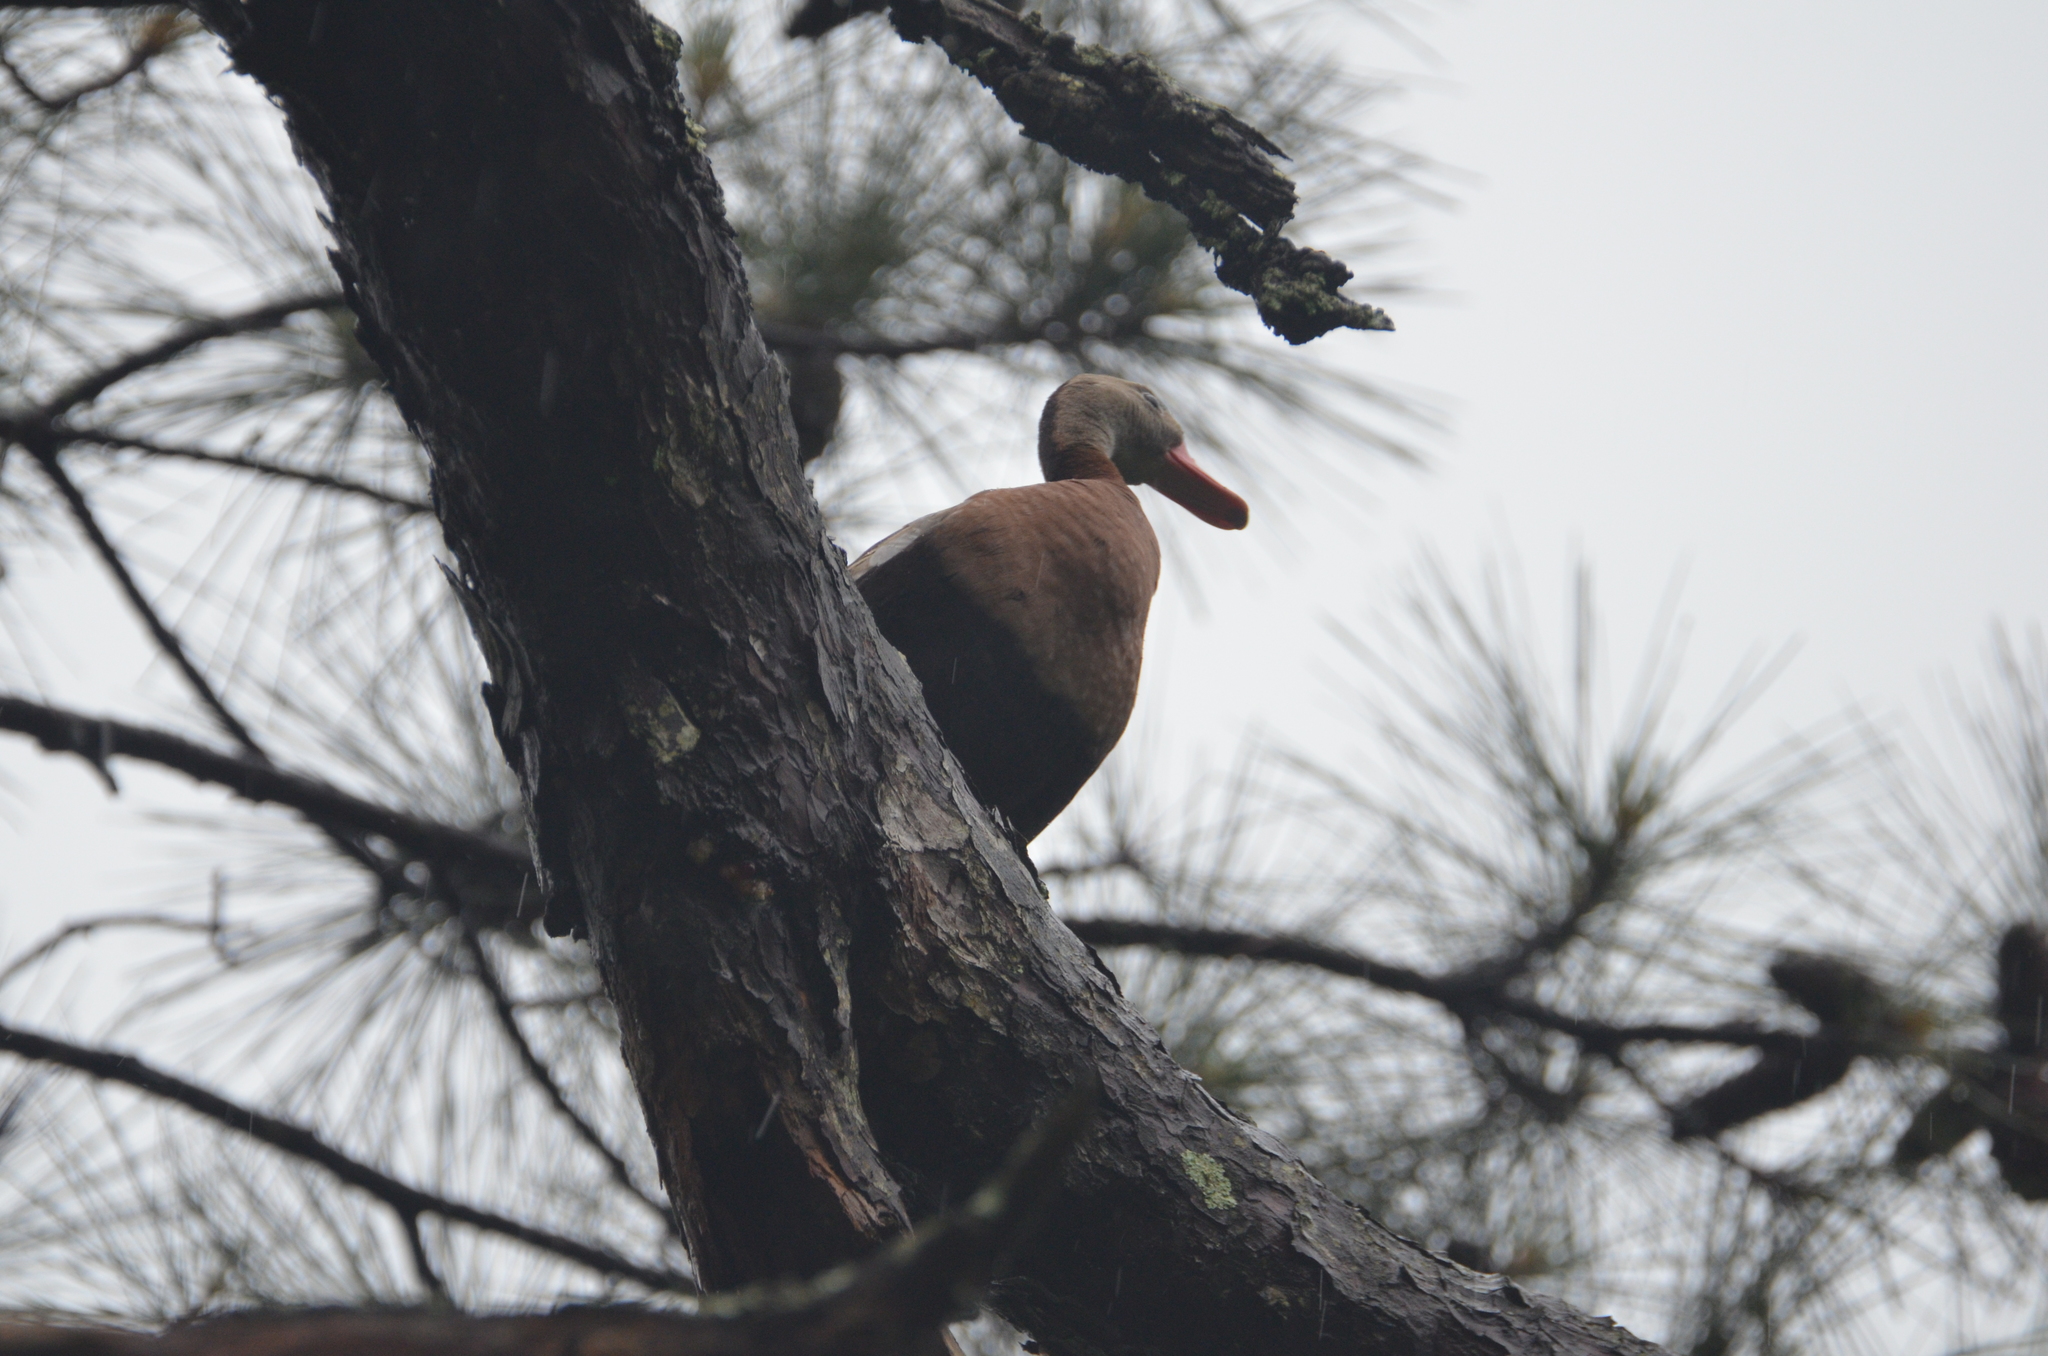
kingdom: Animalia
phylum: Chordata
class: Aves
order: Anseriformes
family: Anatidae
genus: Dendrocygna
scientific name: Dendrocygna autumnalis
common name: Black-bellied whistling duck
